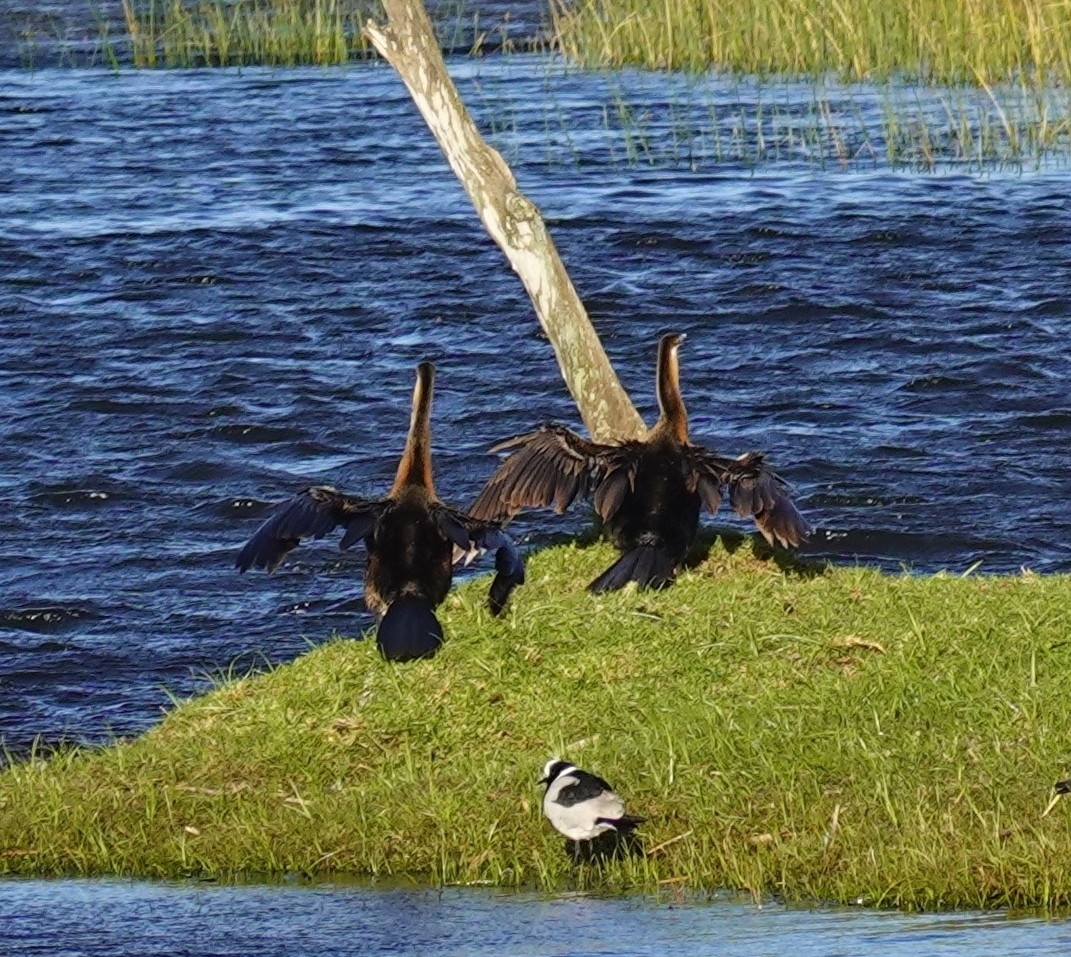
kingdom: Animalia
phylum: Chordata
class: Aves
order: Suliformes
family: Anhingidae
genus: Anhinga
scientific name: Anhinga rufa
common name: African darter
